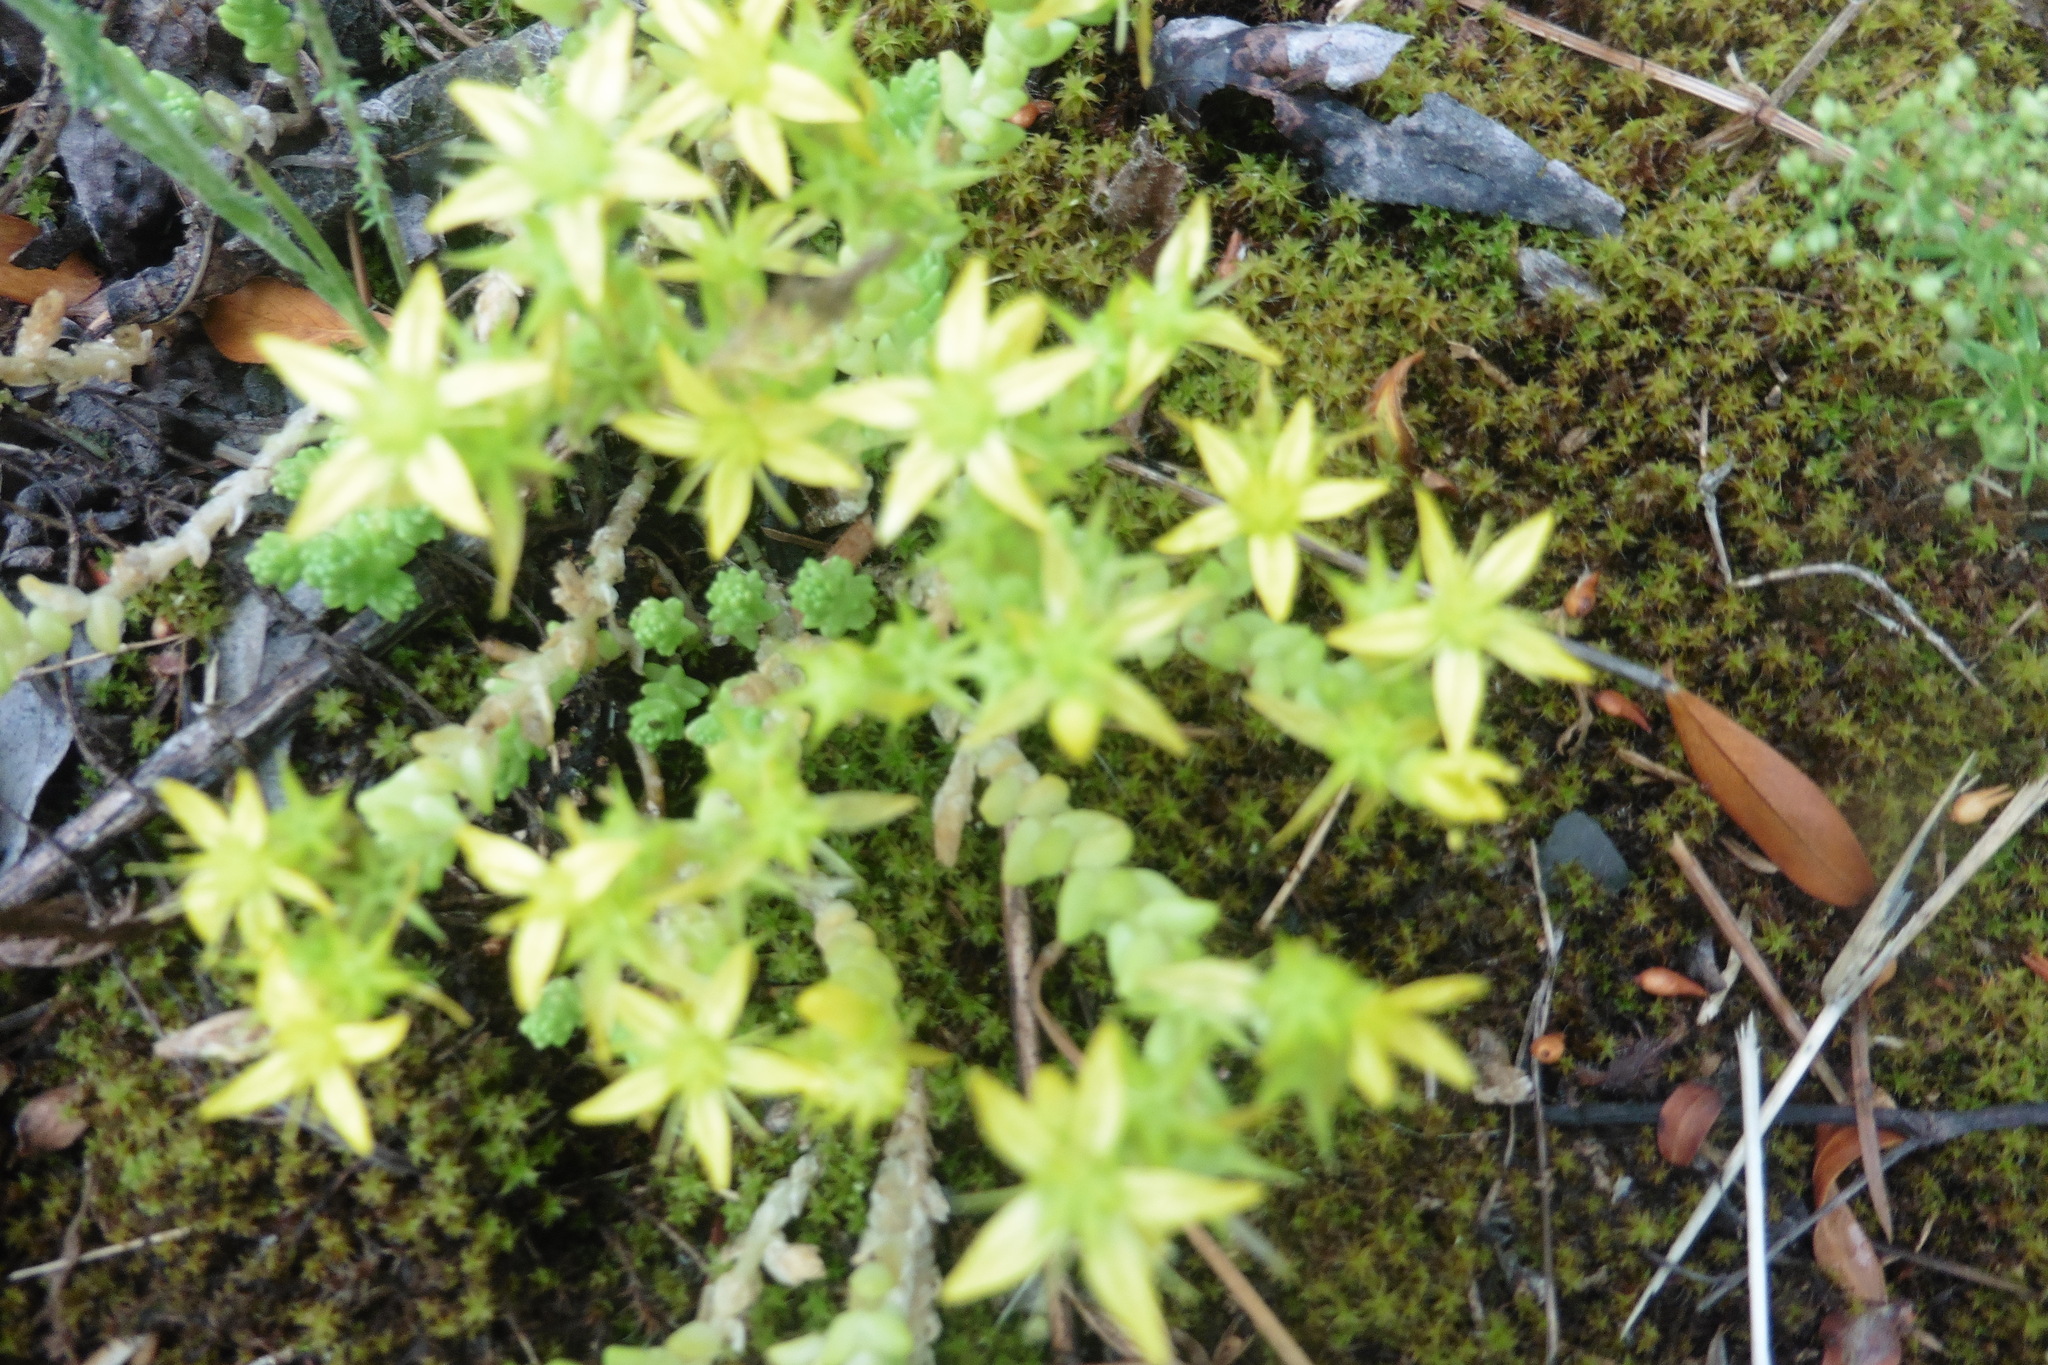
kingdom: Plantae
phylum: Tracheophyta
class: Magnoliopsida
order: Saxifragales
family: Crassulaceae
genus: Sedum
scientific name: Sedum acre
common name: Biting stonecrop
